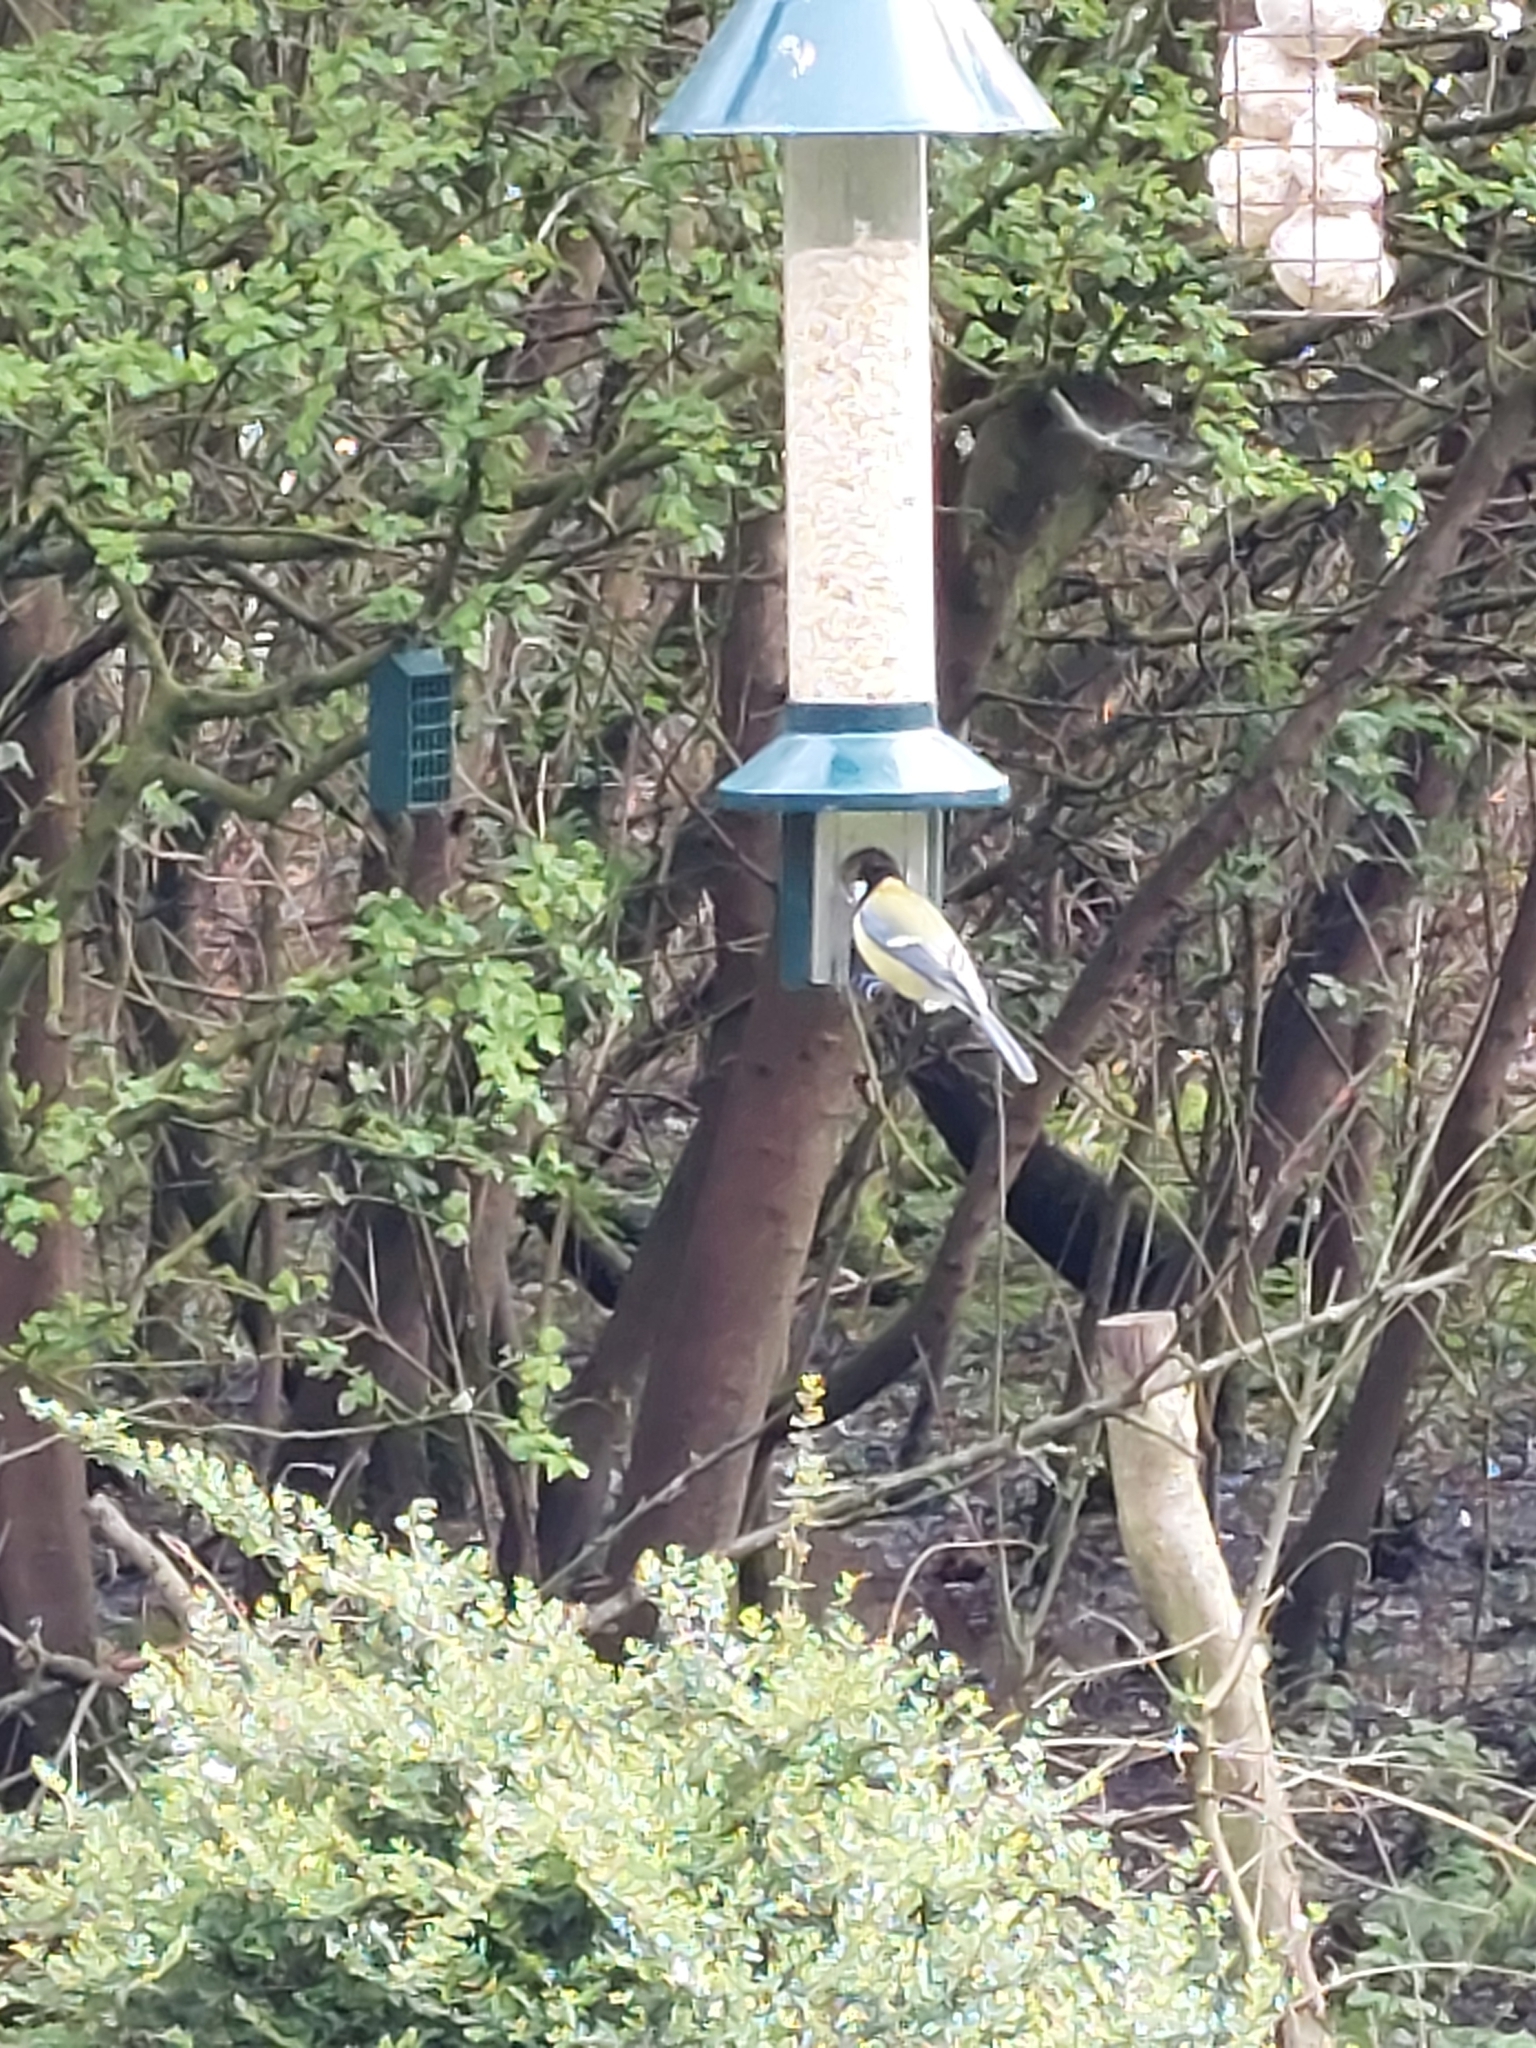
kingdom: Animalia
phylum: Chordata
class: Aves
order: Passeriformes
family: Paridae
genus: Parus
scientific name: Parus major
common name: Great tit
